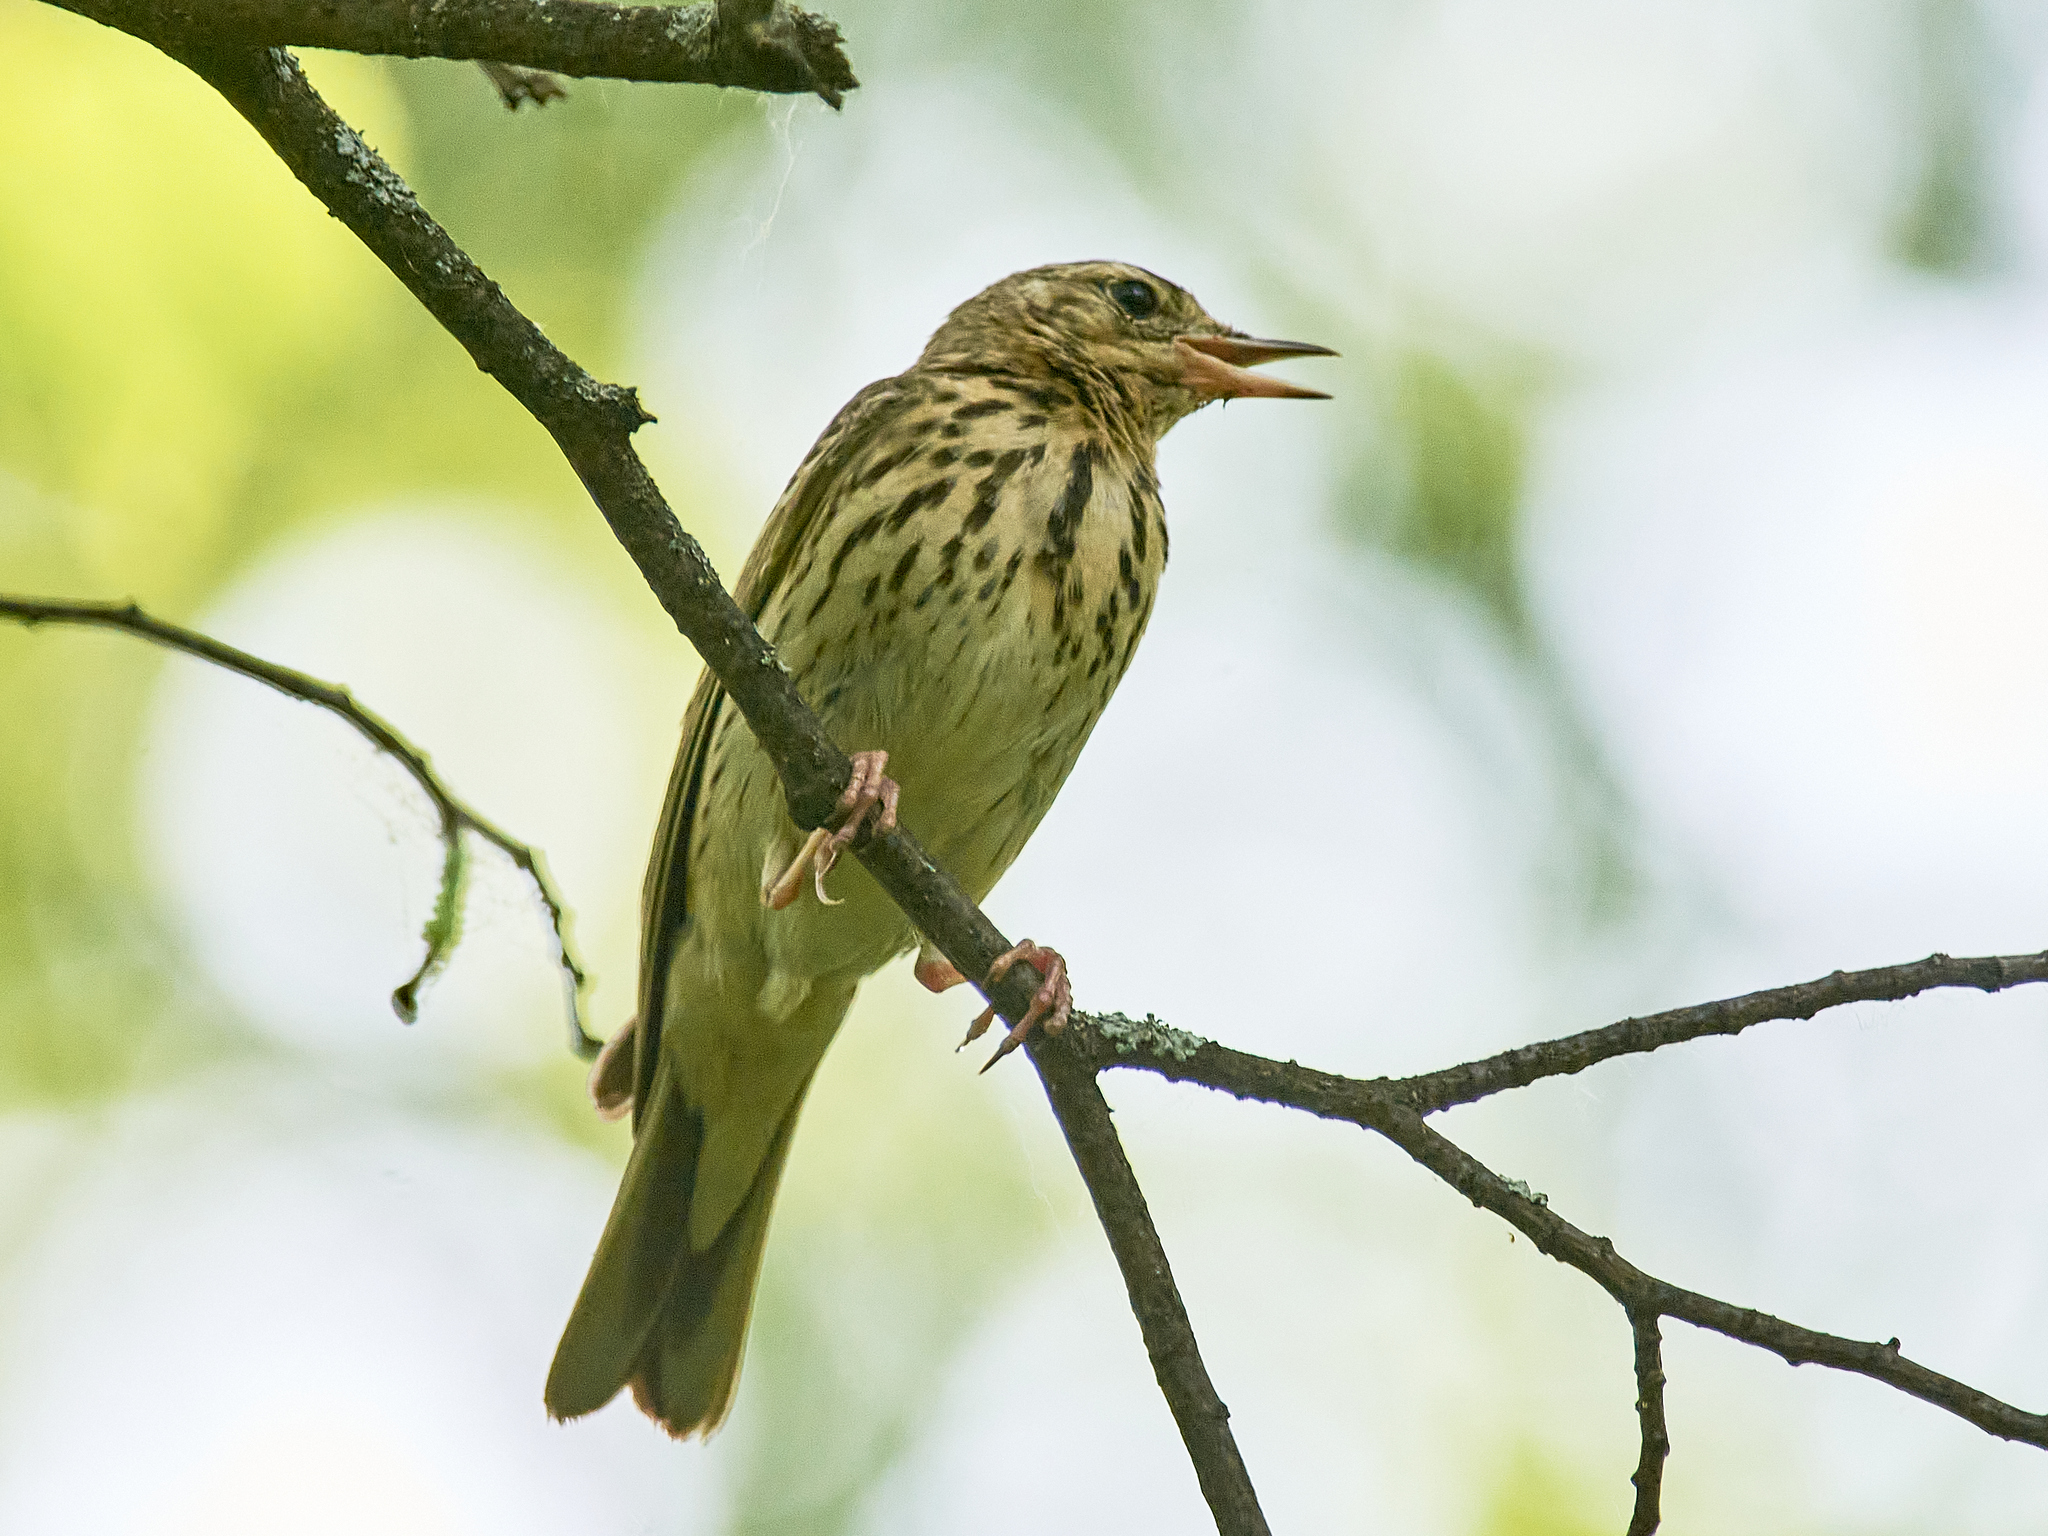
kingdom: Animalia
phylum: Chordata
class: Aves
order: Passeriformes
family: Motacillidae
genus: Anthus
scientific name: Anthus trivialis
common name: Tree pipit
